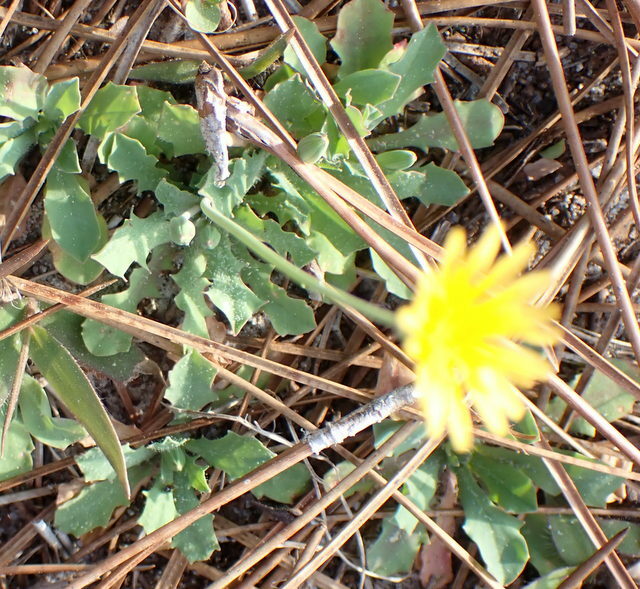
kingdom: Plantae
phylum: Tracheophyta
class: Magnoliopsida
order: Asterales
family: Asteraceae
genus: Krigia
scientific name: Krigia virginica
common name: Virginia dwarf-dandelion
